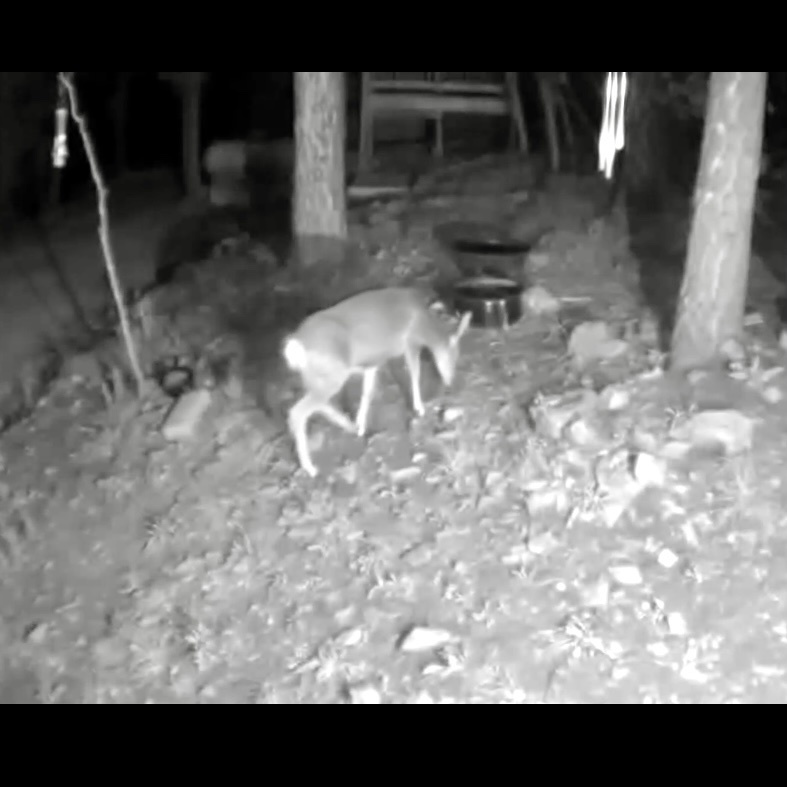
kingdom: Animalia
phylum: Chordata
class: Mammalia
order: Artiodactyla
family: Cervidae
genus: Odocoileus
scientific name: Odocoileus hemionus
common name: Mule deer
